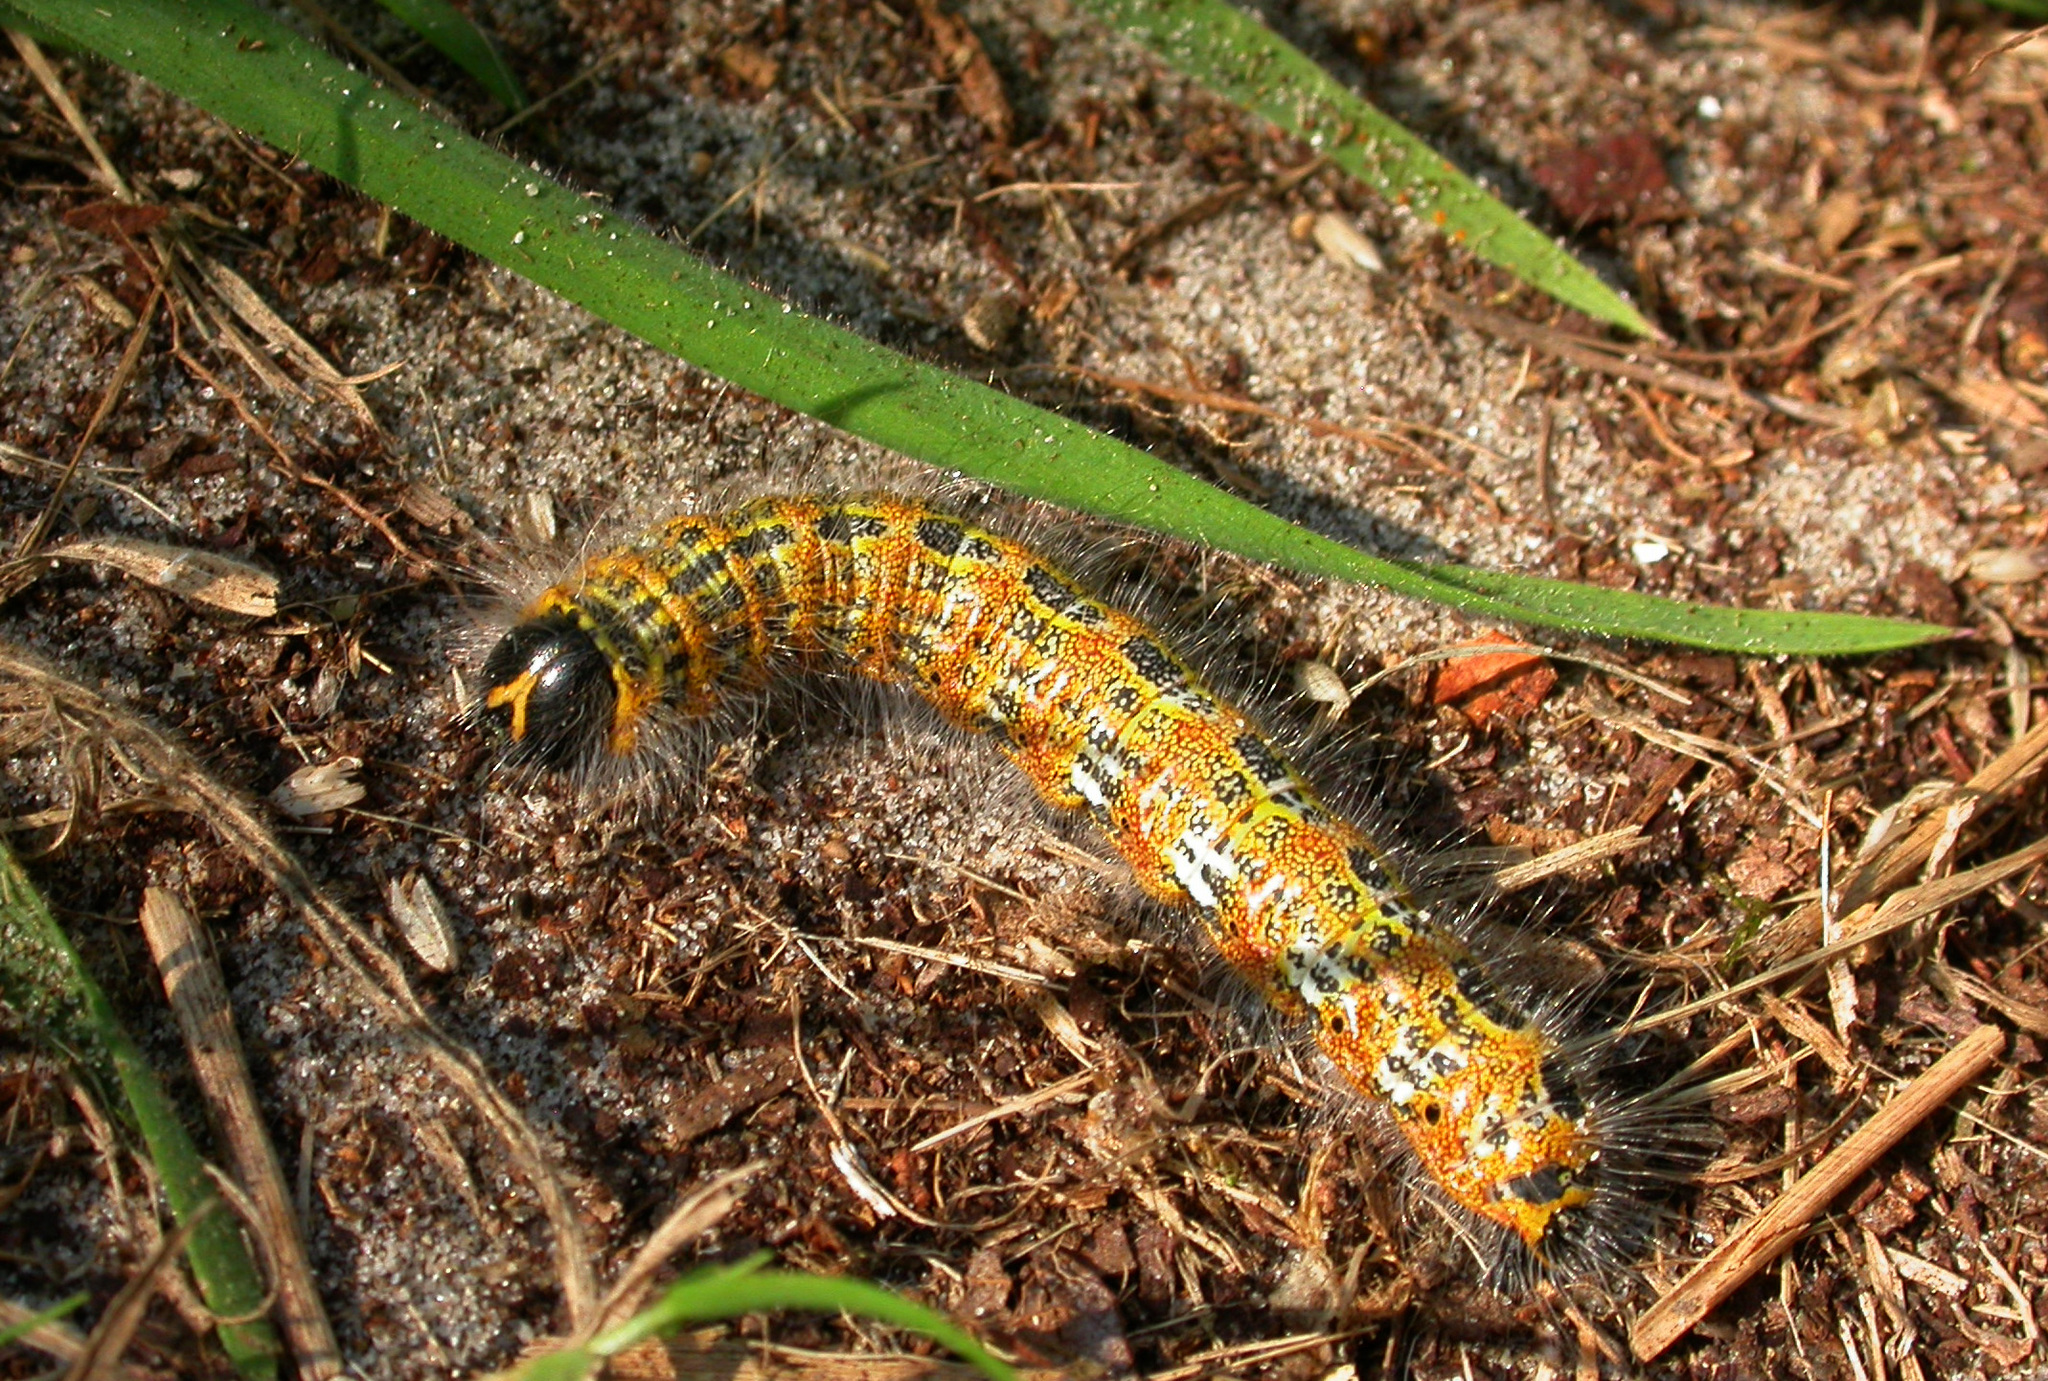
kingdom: Animalia
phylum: Arthropoda
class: Insecta
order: Lepidoptera
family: Notodontidae
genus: Phalera
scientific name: Phalera bucephala
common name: Buff-tip
